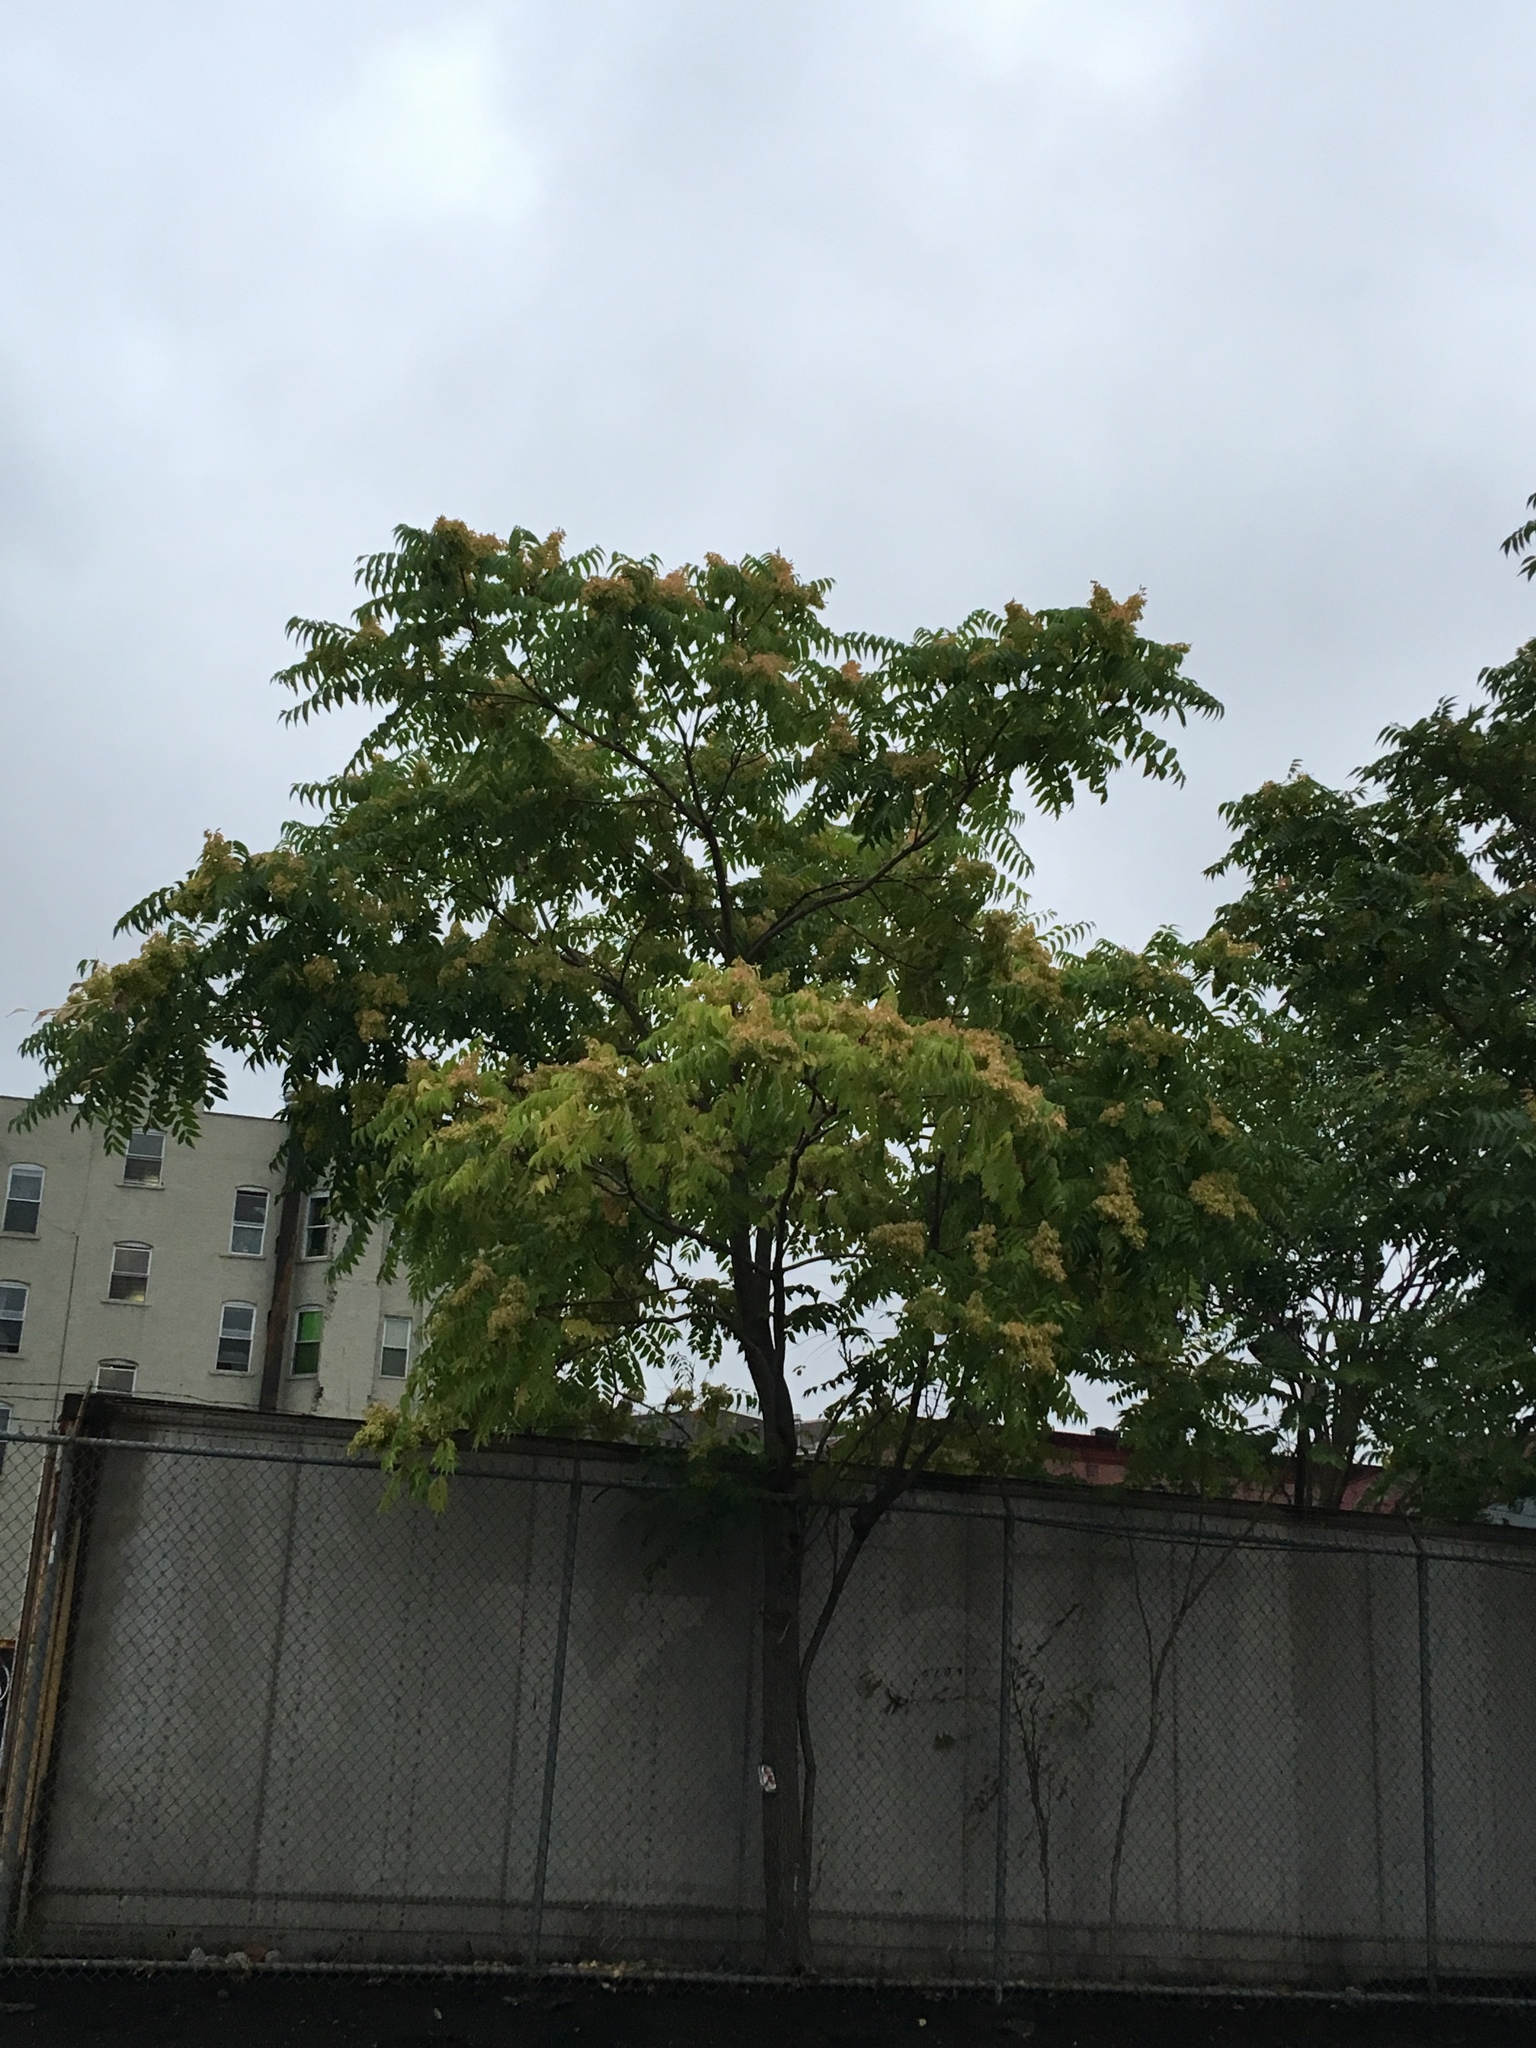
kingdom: Plantae
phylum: Tracheophyta
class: Magnoliopsida
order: Sapindales
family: Simaroubaceae
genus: Ailanthus
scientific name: Ailanthus altissima
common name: Tree-of-heaven
